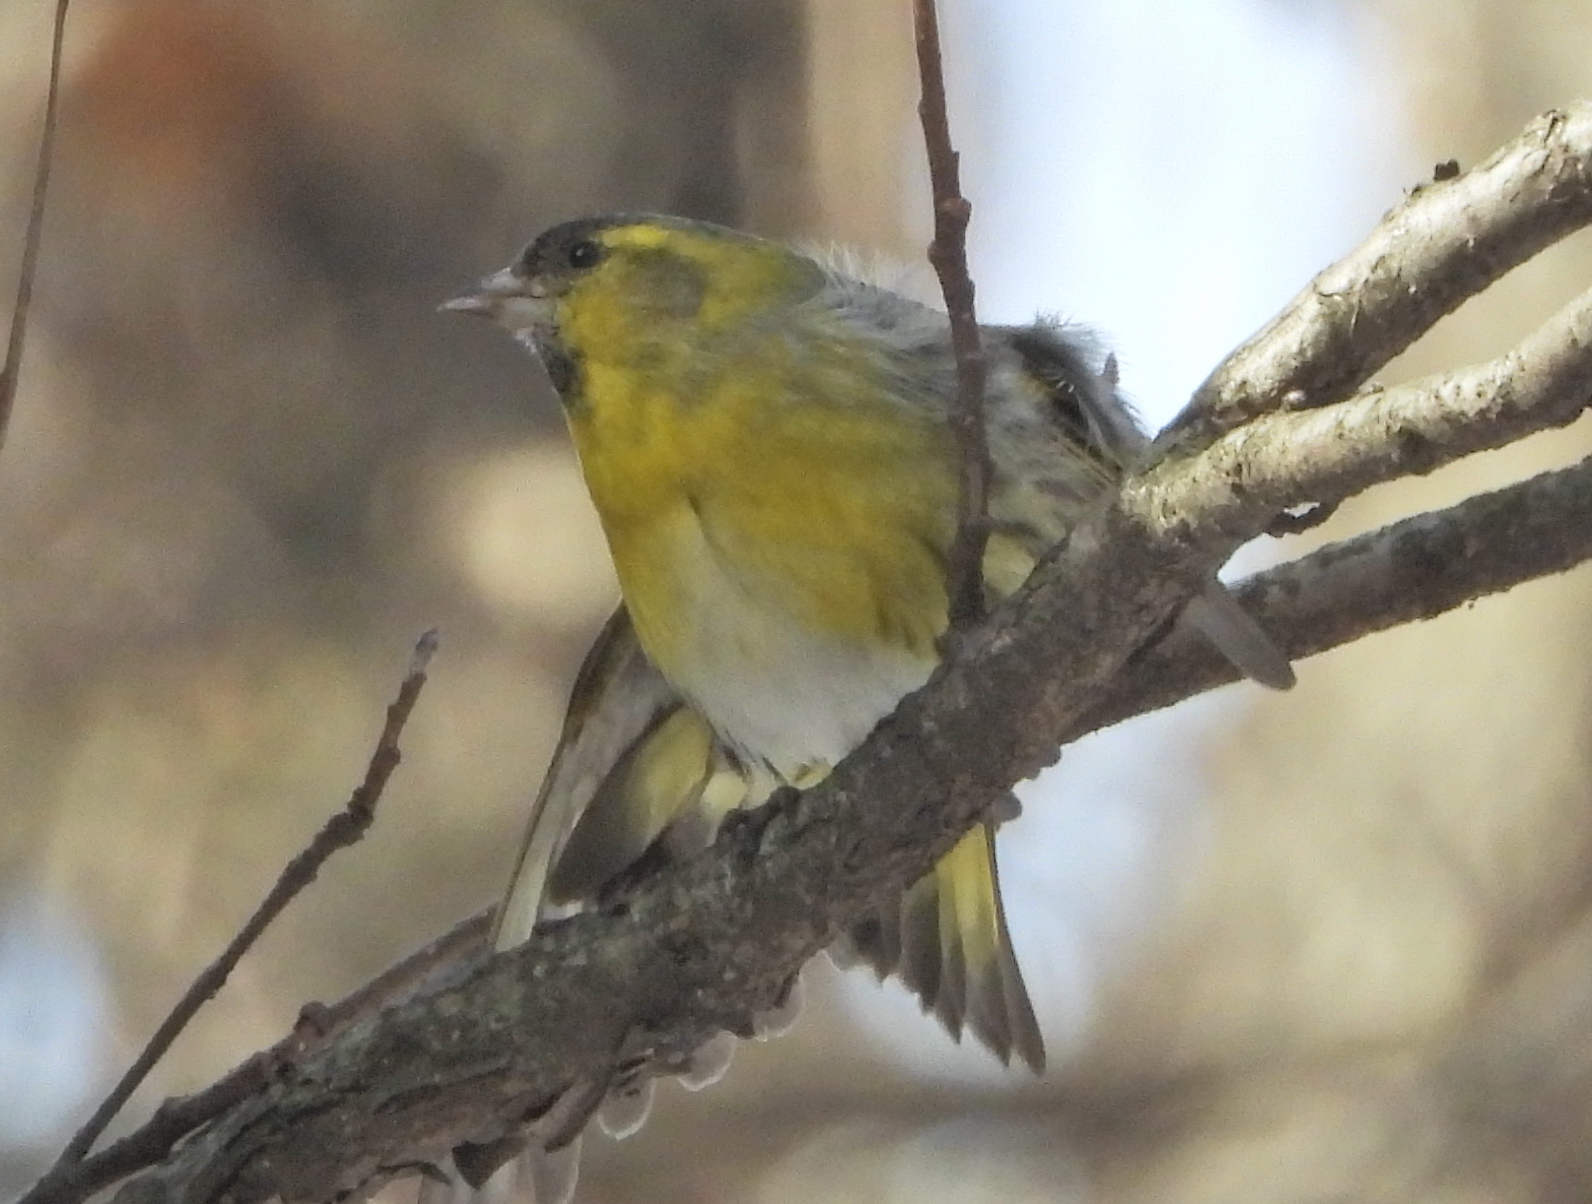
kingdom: Animalia
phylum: Chordata
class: Aves
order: Passeriformes
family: Fringillidae
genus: Spinus
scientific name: Spinus spinus
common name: Eurasian siskin
